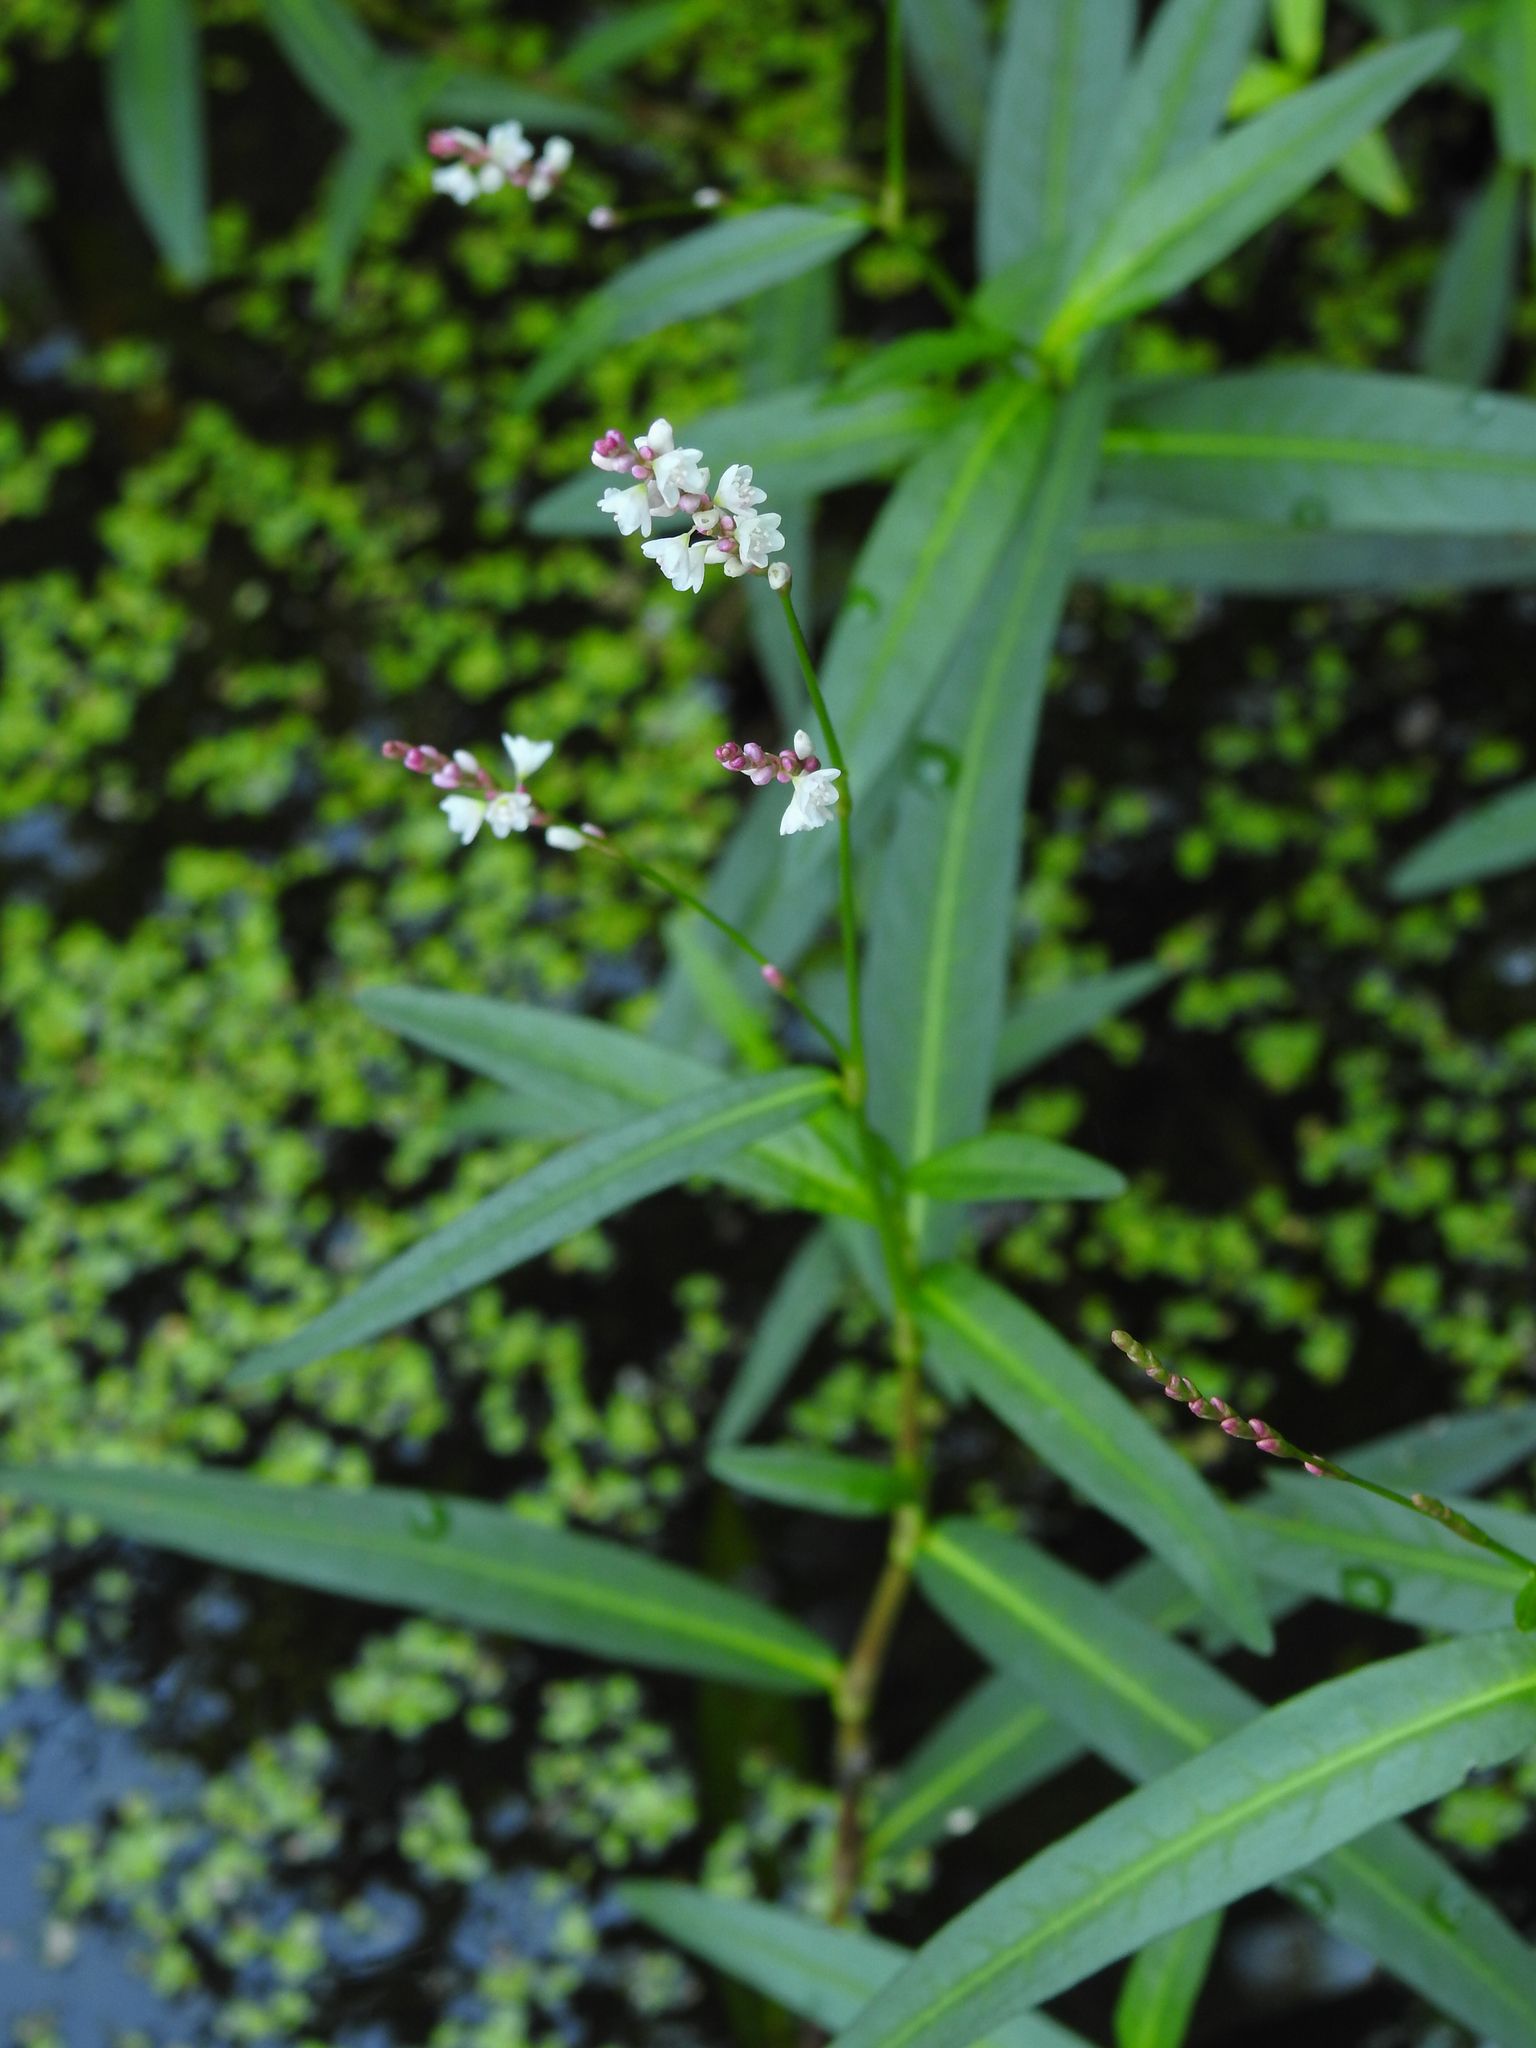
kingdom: Plantae
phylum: Tracheophyta
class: Magnoliopsida
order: Caryophyllales
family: Polygonaceae
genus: Persicaria
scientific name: Persicaria hydropiperoides
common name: Swamp smartweed
